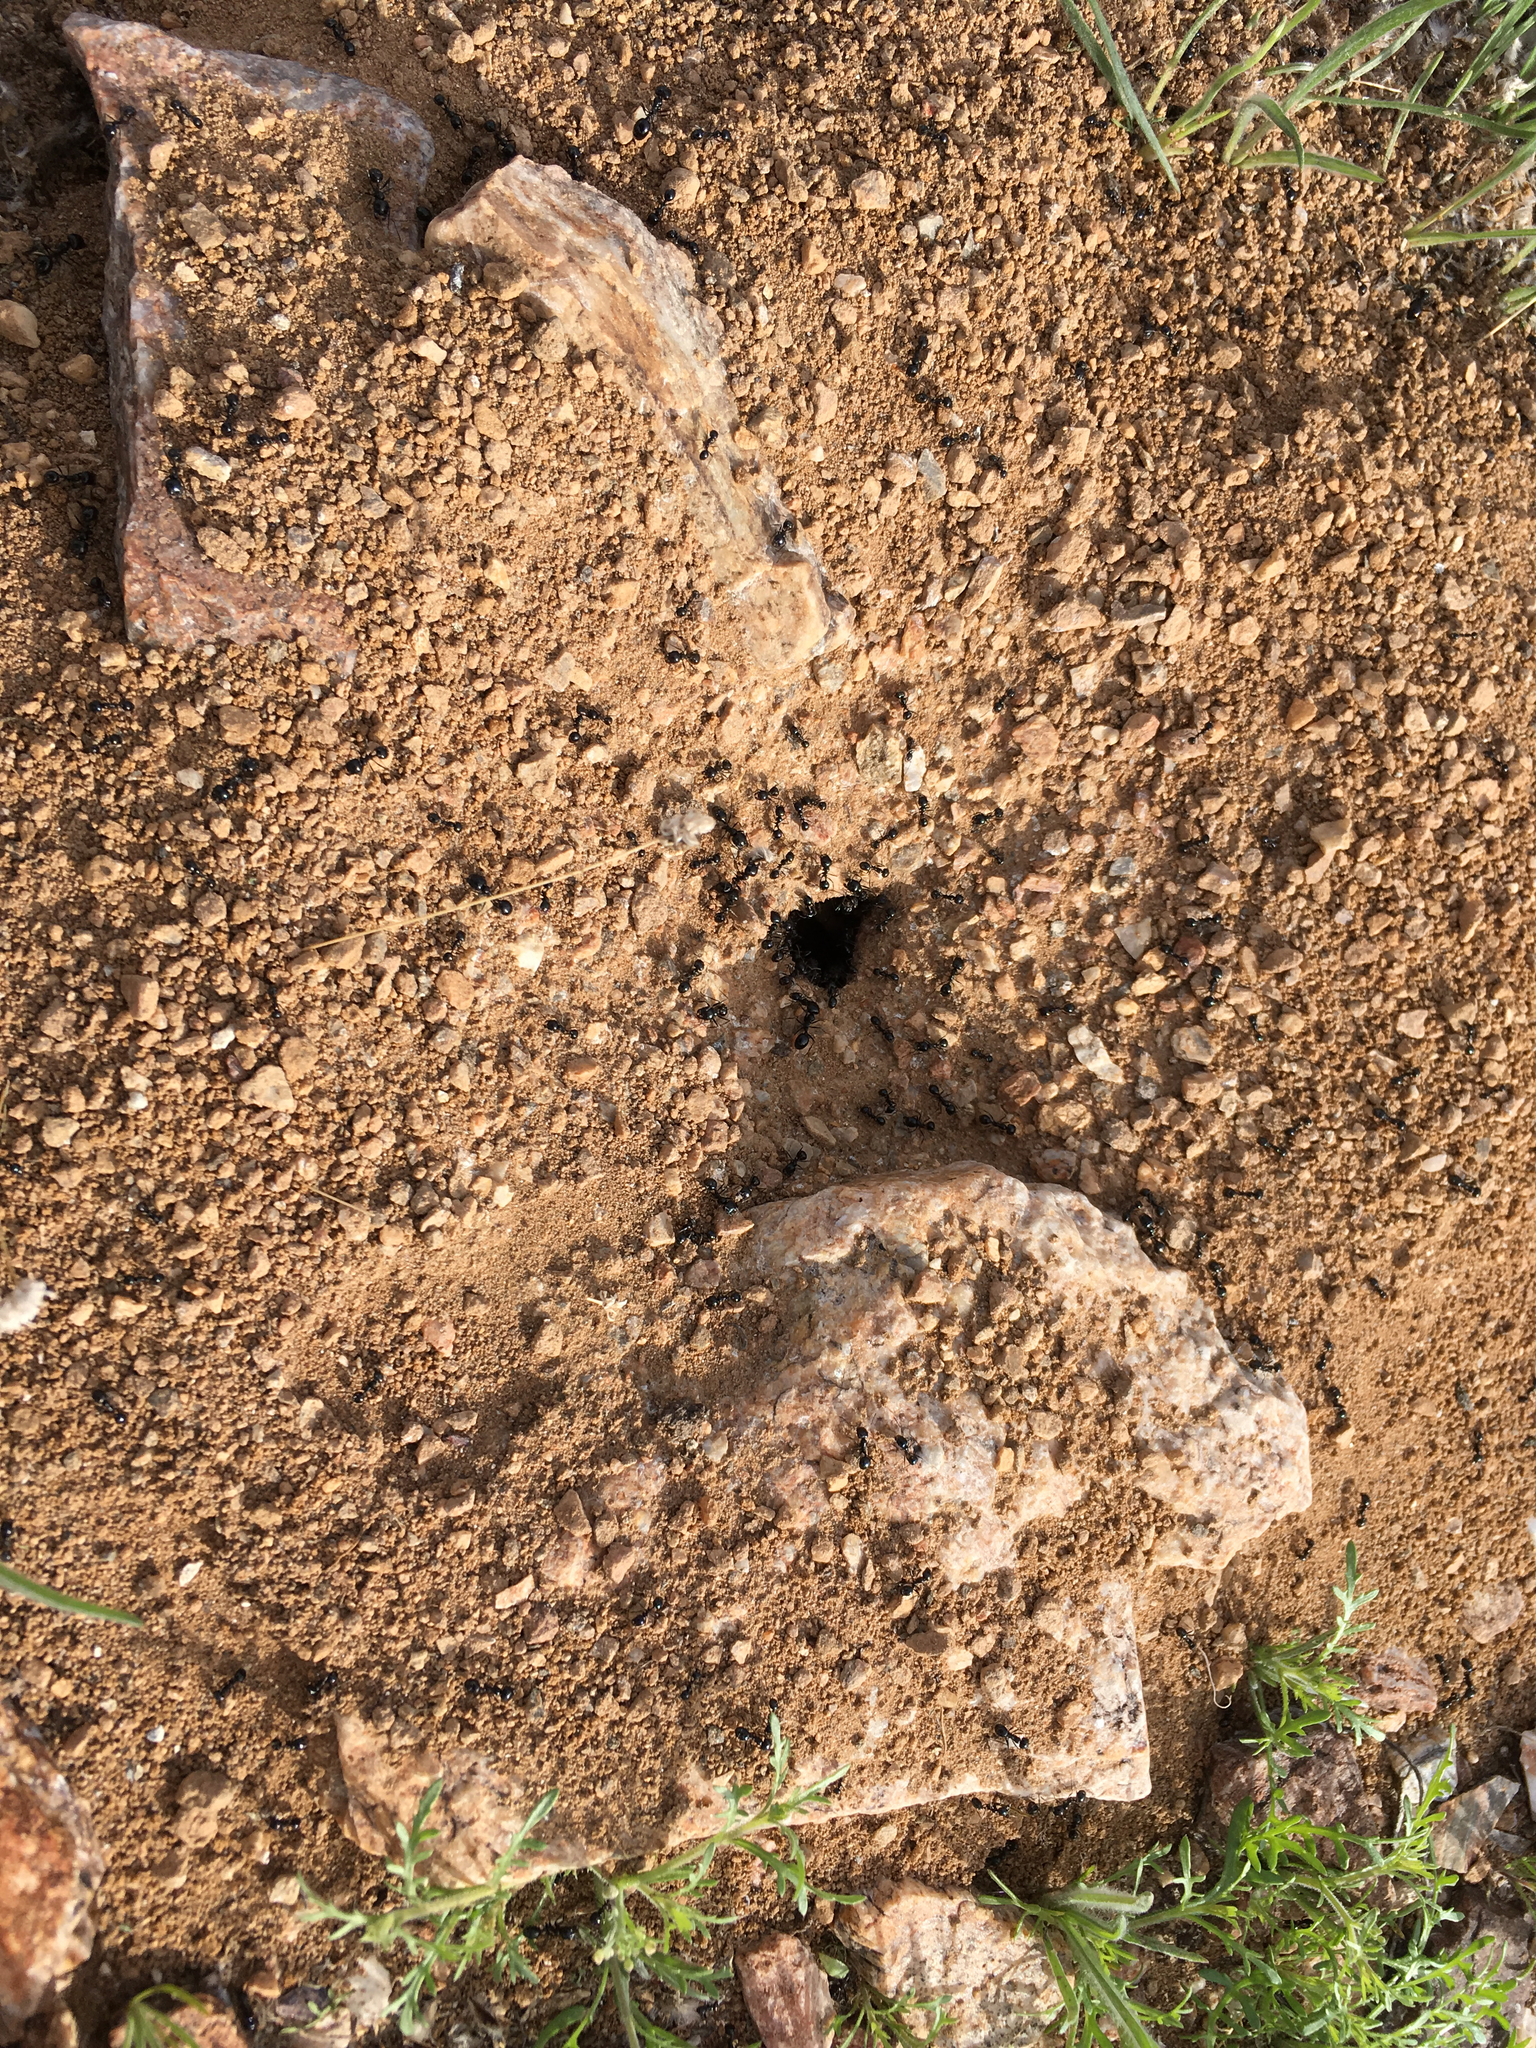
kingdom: Animalia
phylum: Arthropoda
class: Insecta
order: Hymenoptera
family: Formicidae
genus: Messor
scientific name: Messor pergandei
